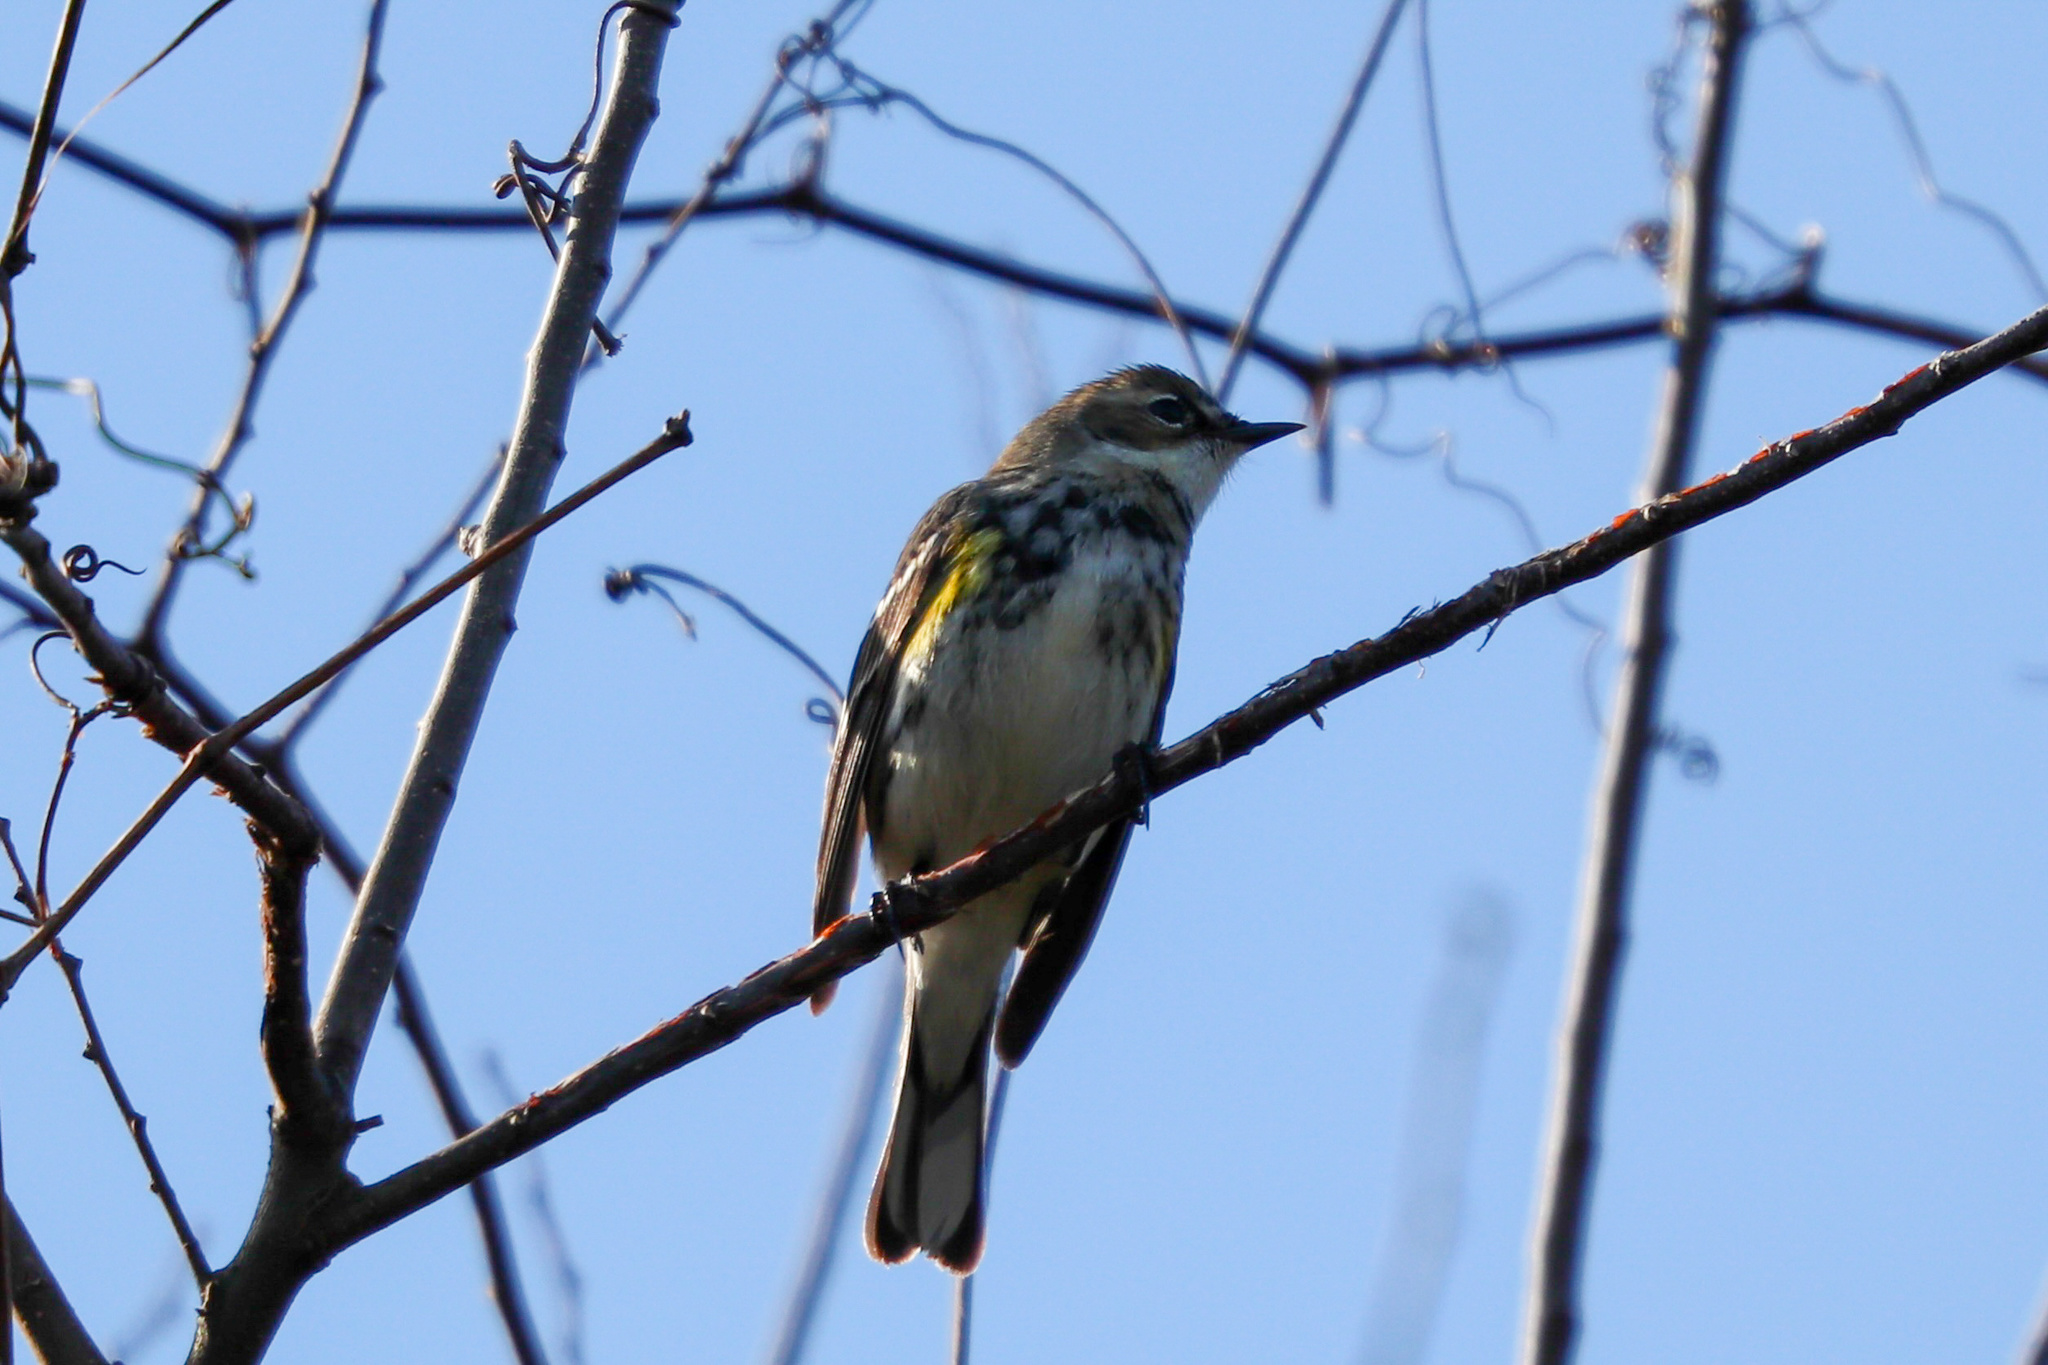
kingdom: Animalia
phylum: Chordata
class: Aves
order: Passeriformes
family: Parulidae
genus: Setophaga
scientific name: Setophaga coronata
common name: Myrtle warbler
